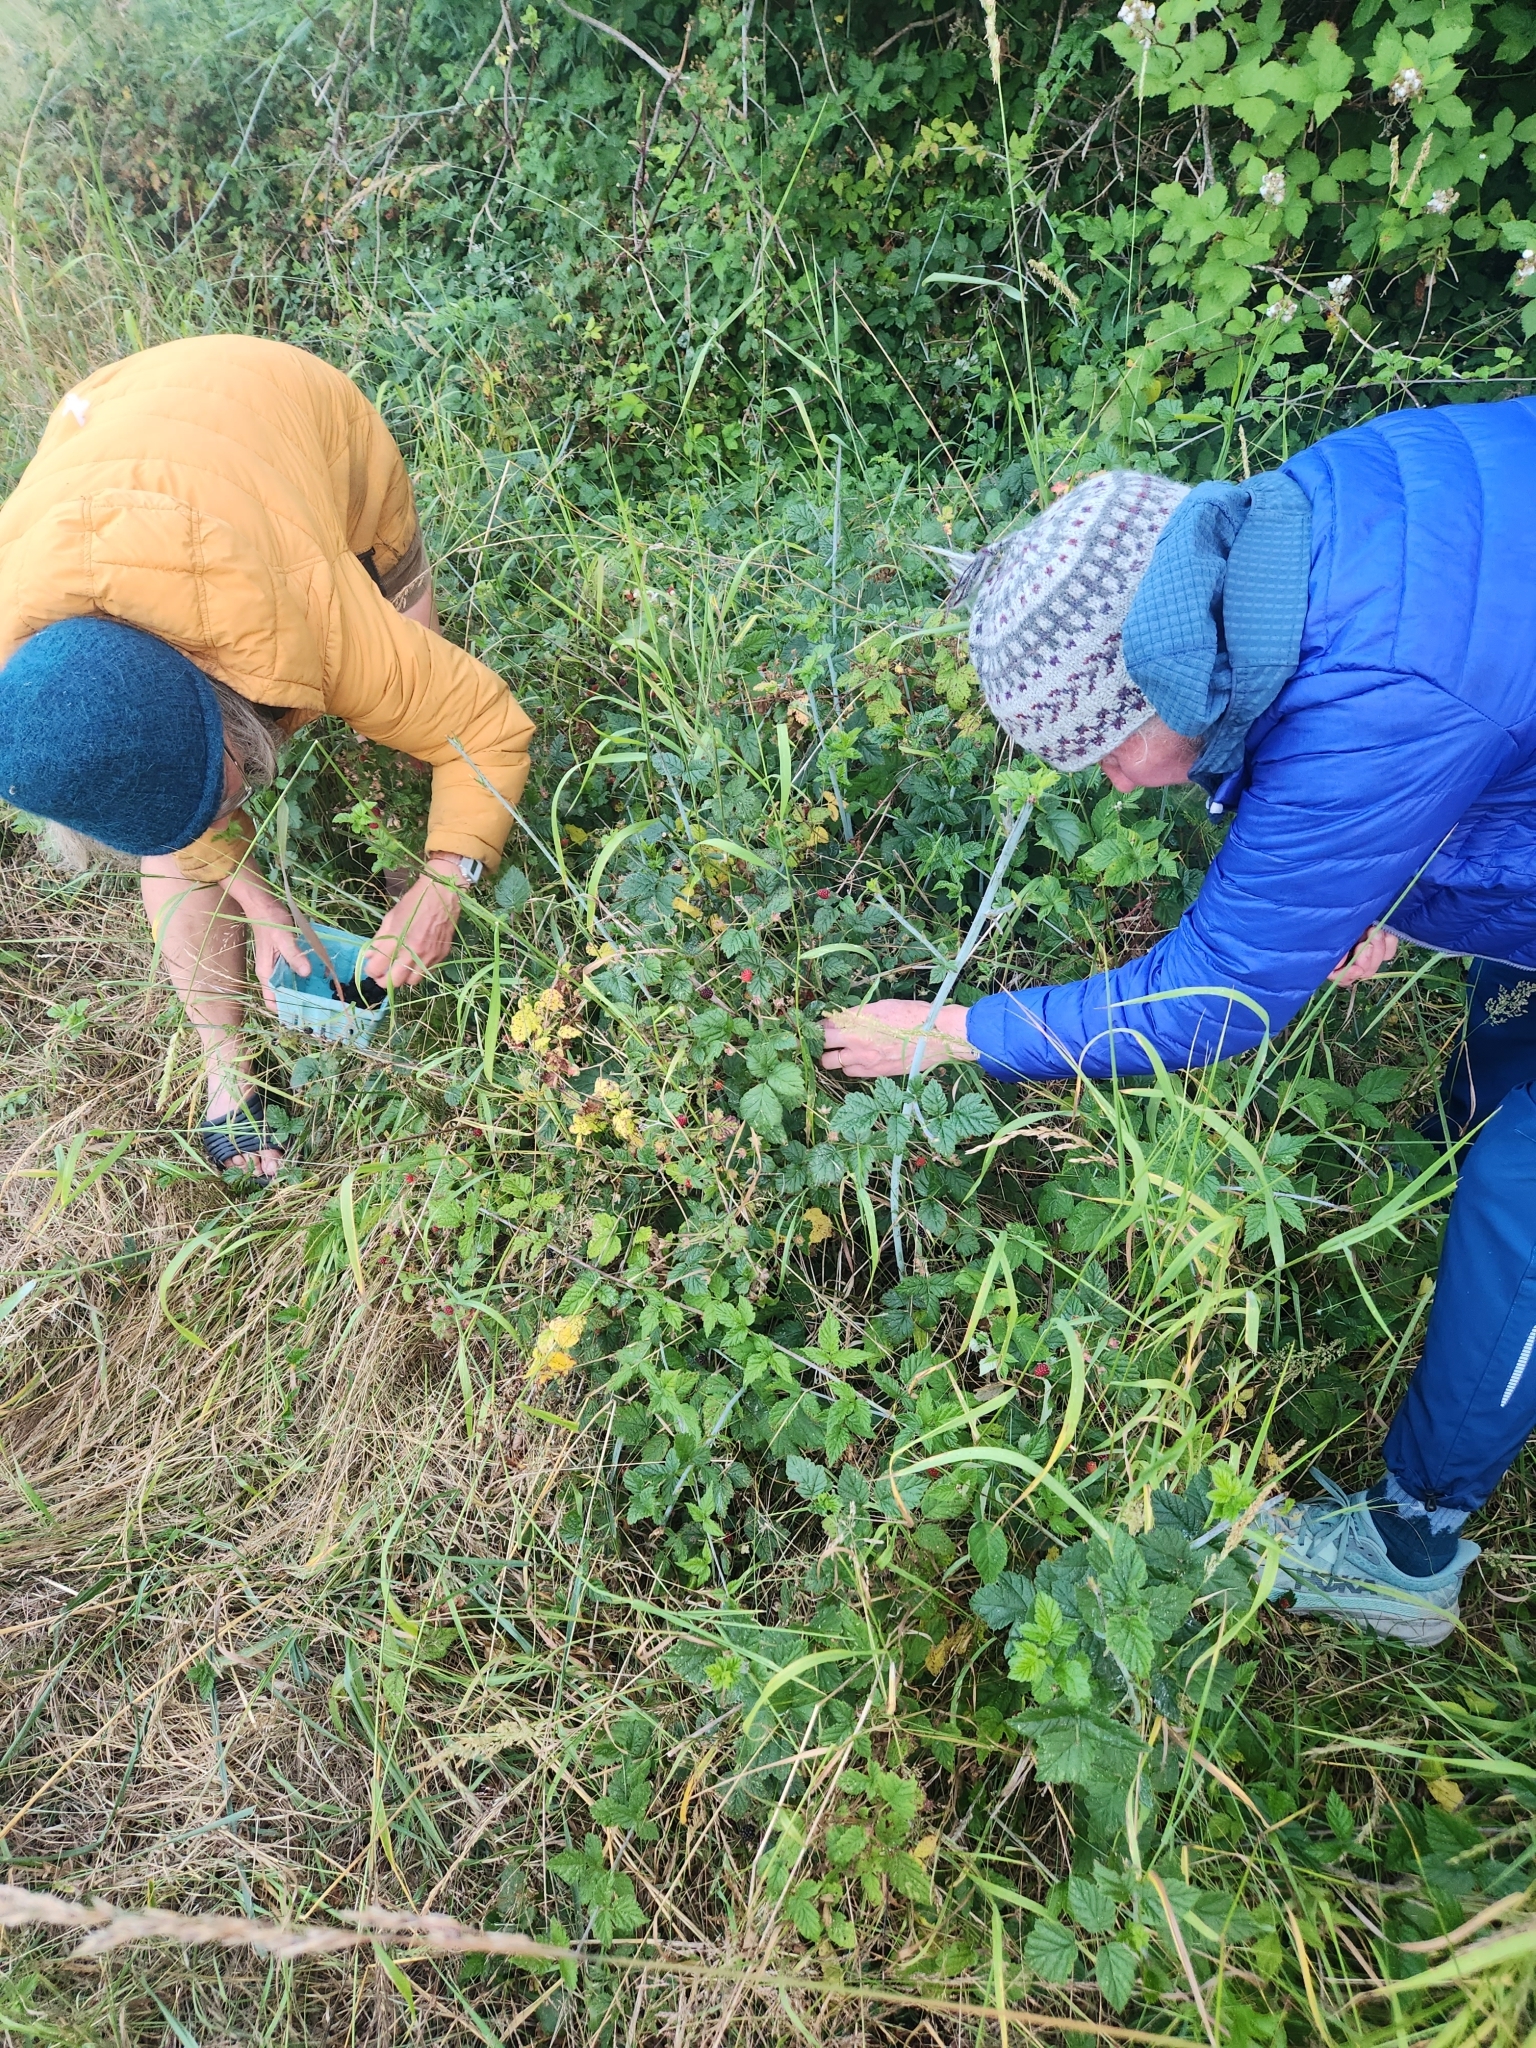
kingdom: Plantae
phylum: Tracheophyta
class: Magnoliopsida
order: Rosales
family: Rosaceae
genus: Rubus
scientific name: Rubus ursinus
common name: Pacific blackberry
